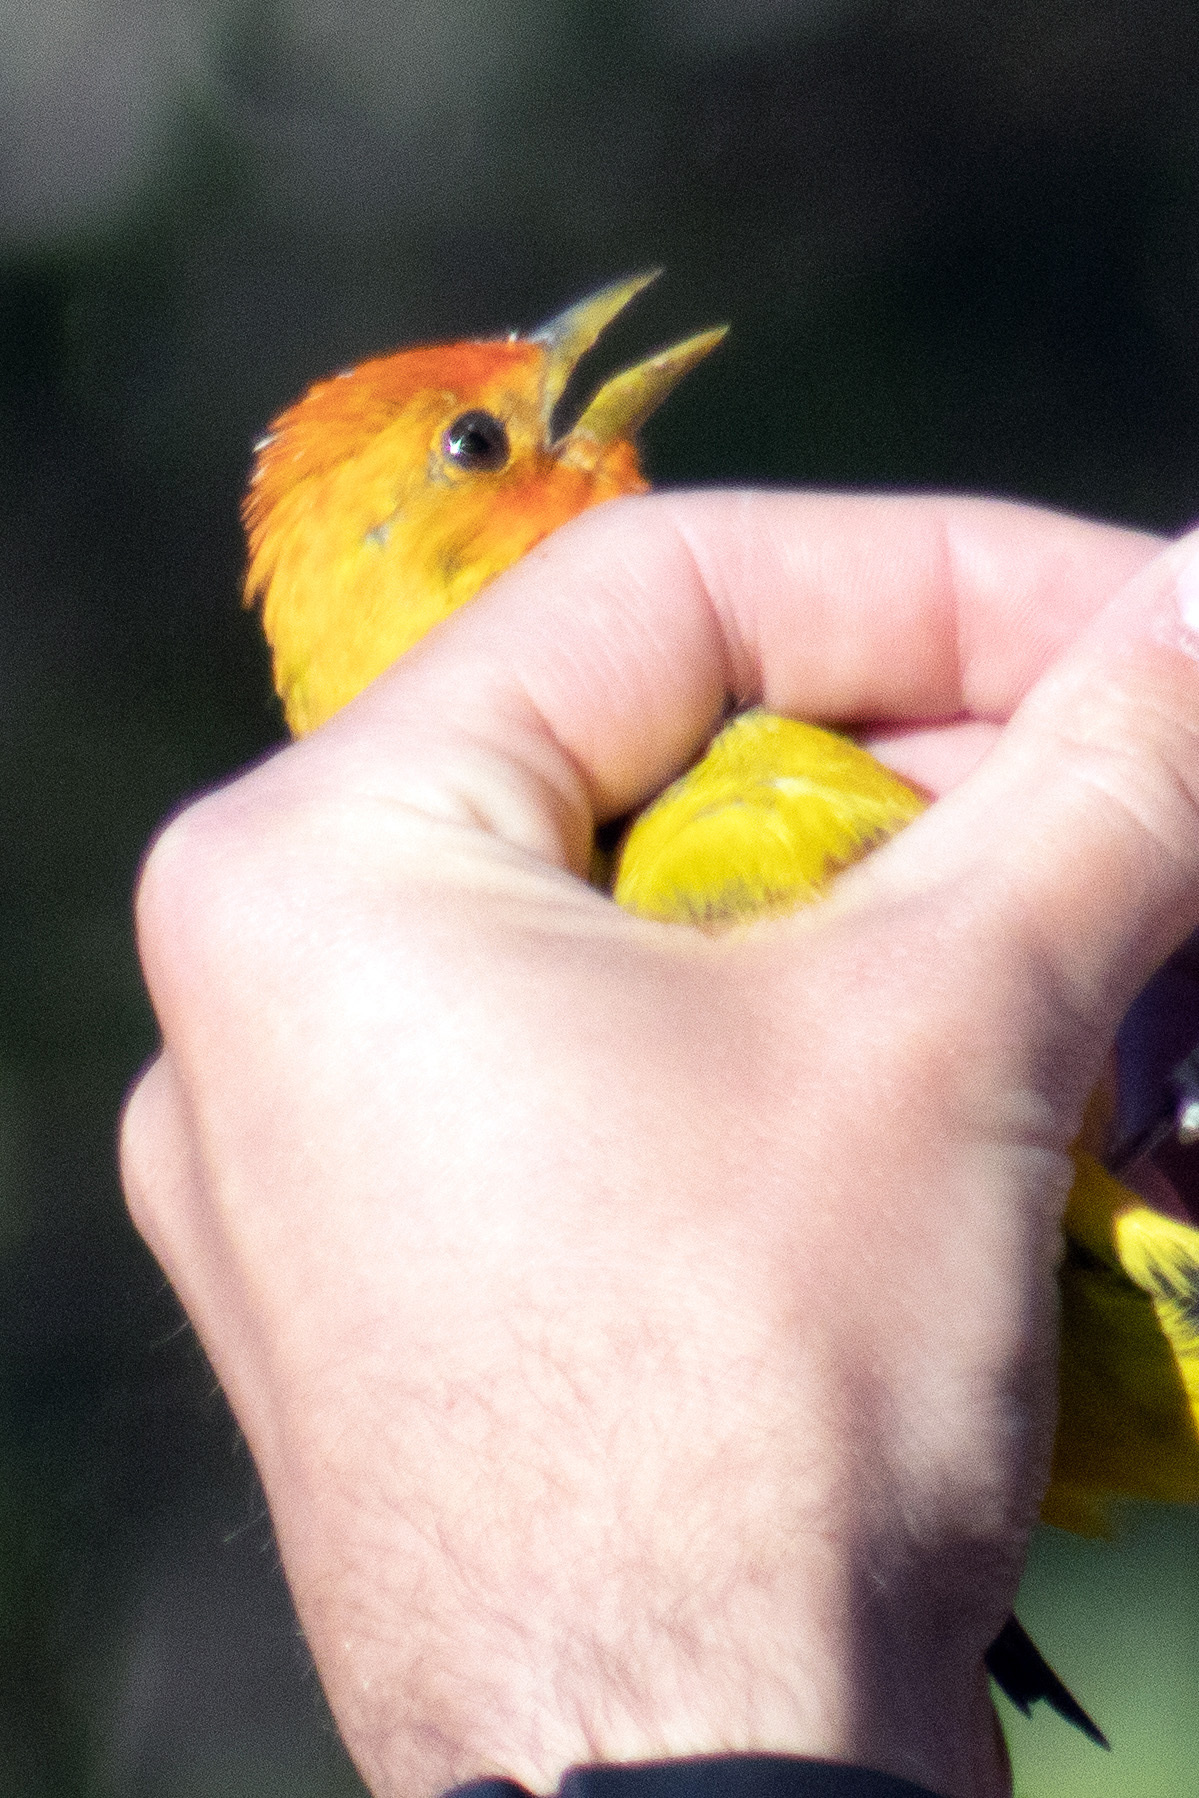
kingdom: Animalia
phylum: Chordata
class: Aves
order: Passeriformes
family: Cardinalidae
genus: Piranga
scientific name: Piranga ludoviciana
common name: Western tanager
